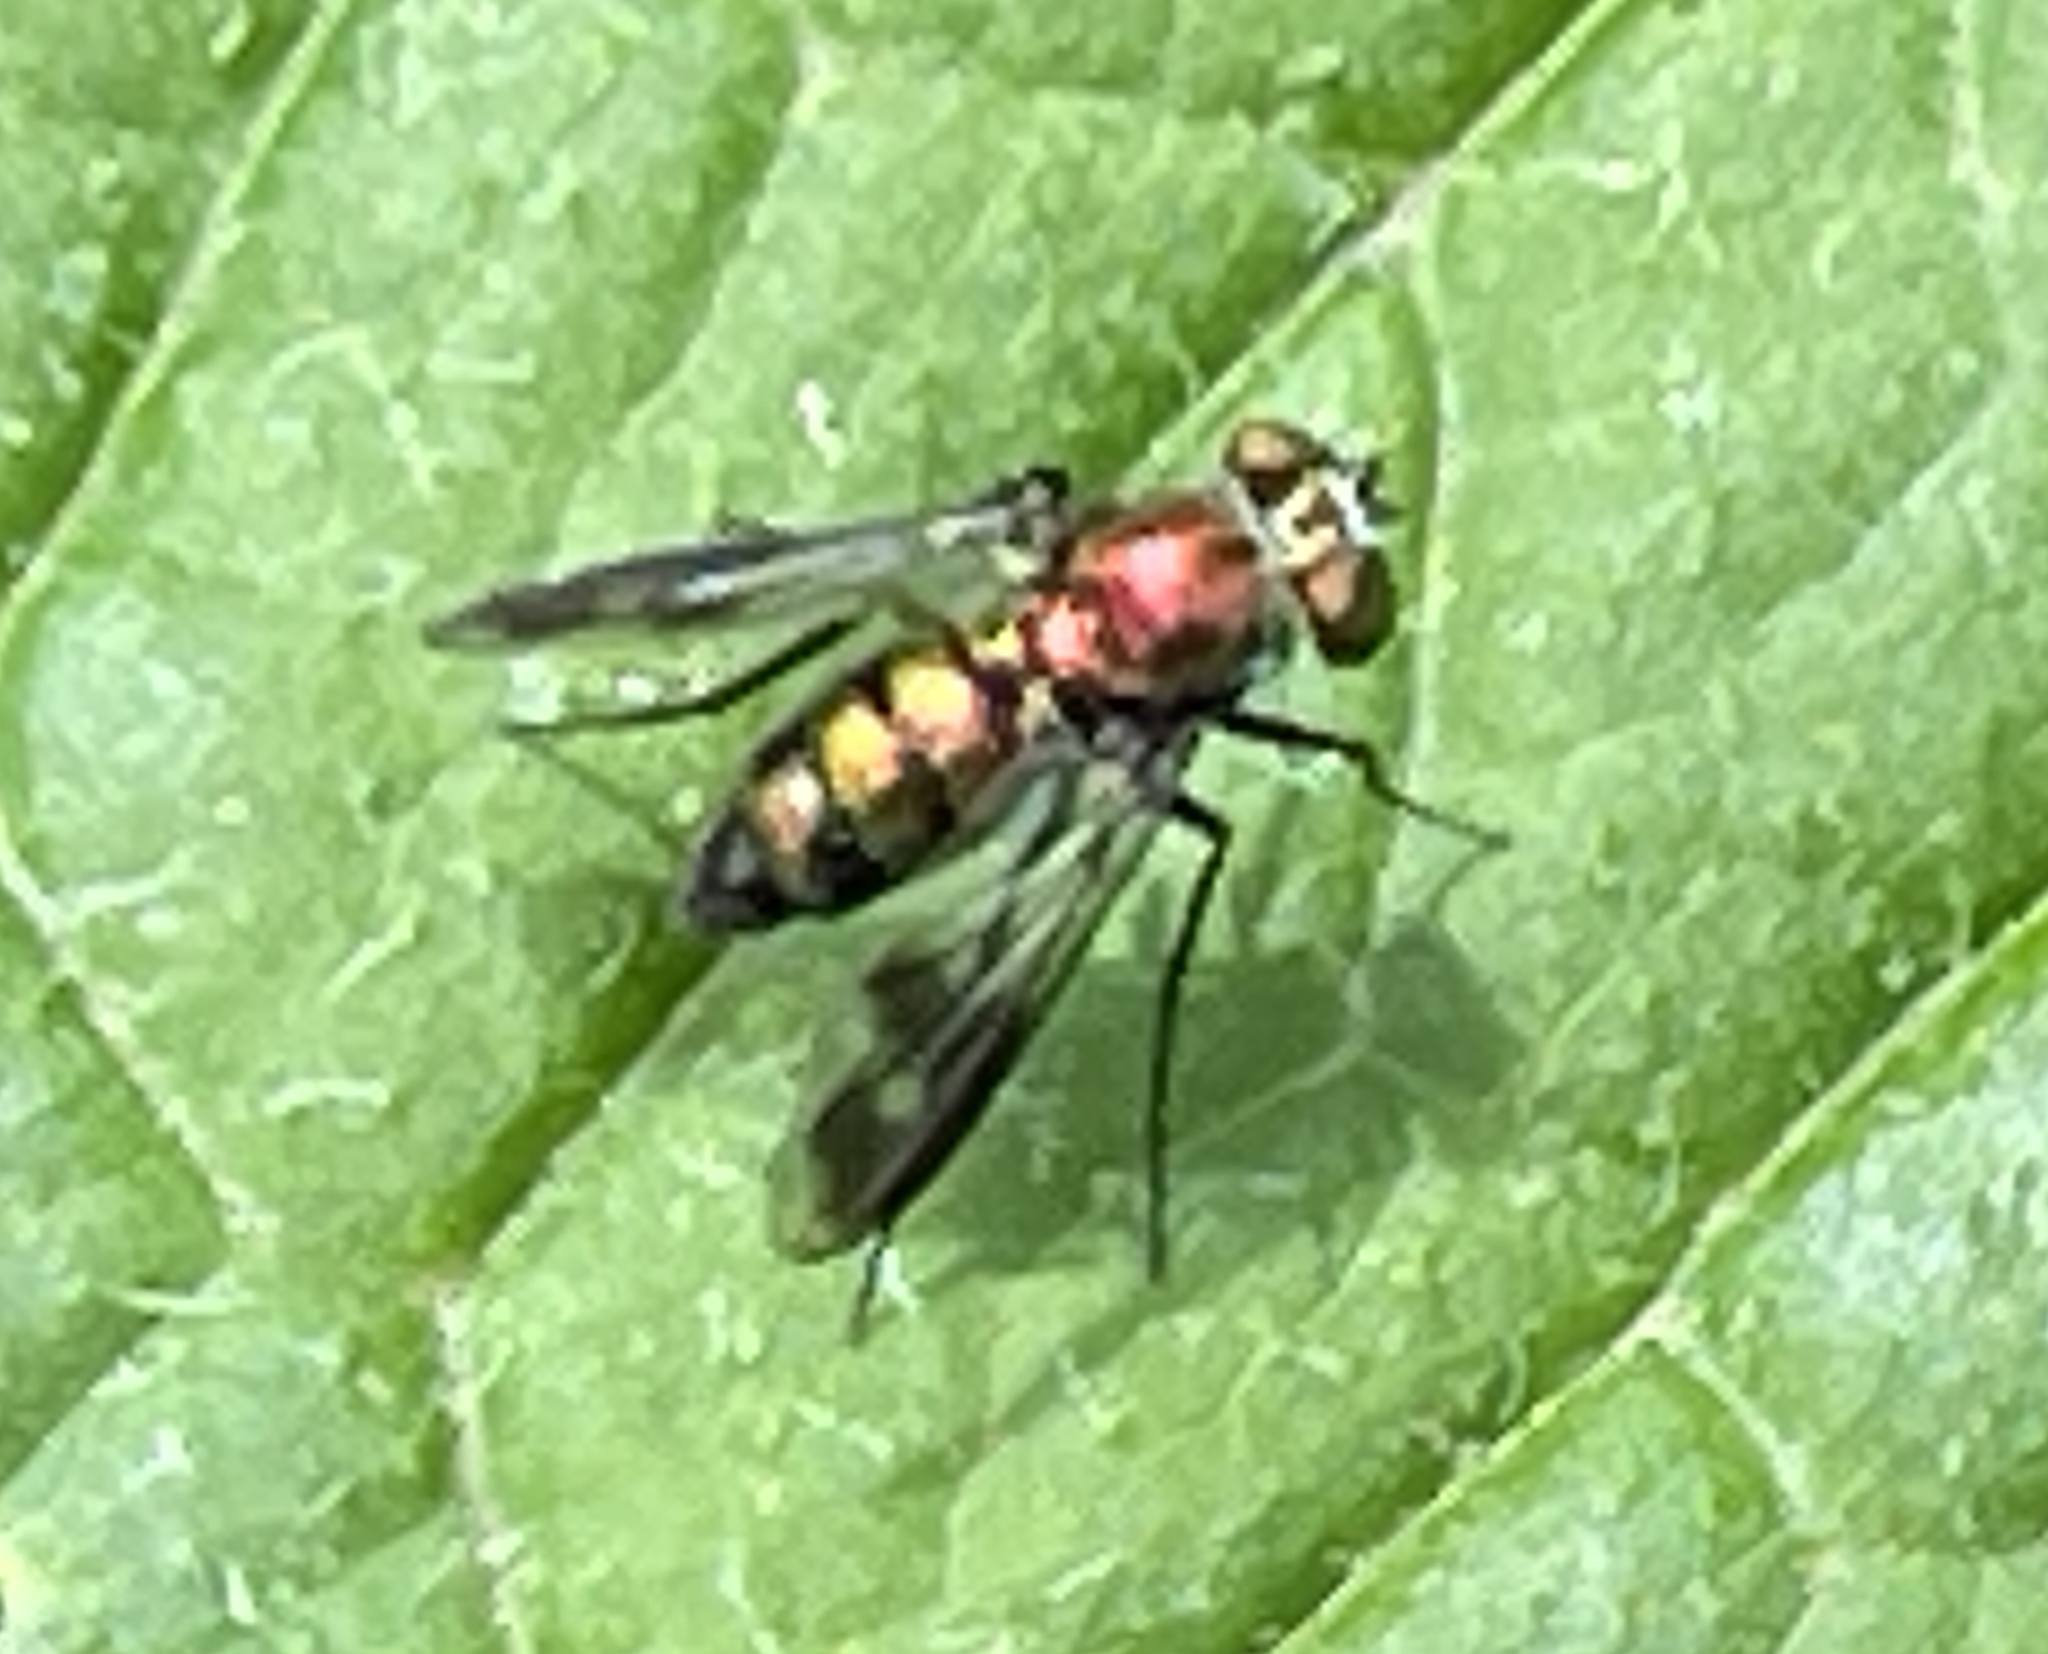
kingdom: Animalia
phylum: Arthropoda
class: Insecta
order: Diptera
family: Dolichopodidae
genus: Condylostylus
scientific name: Condylostylus patibulatus
